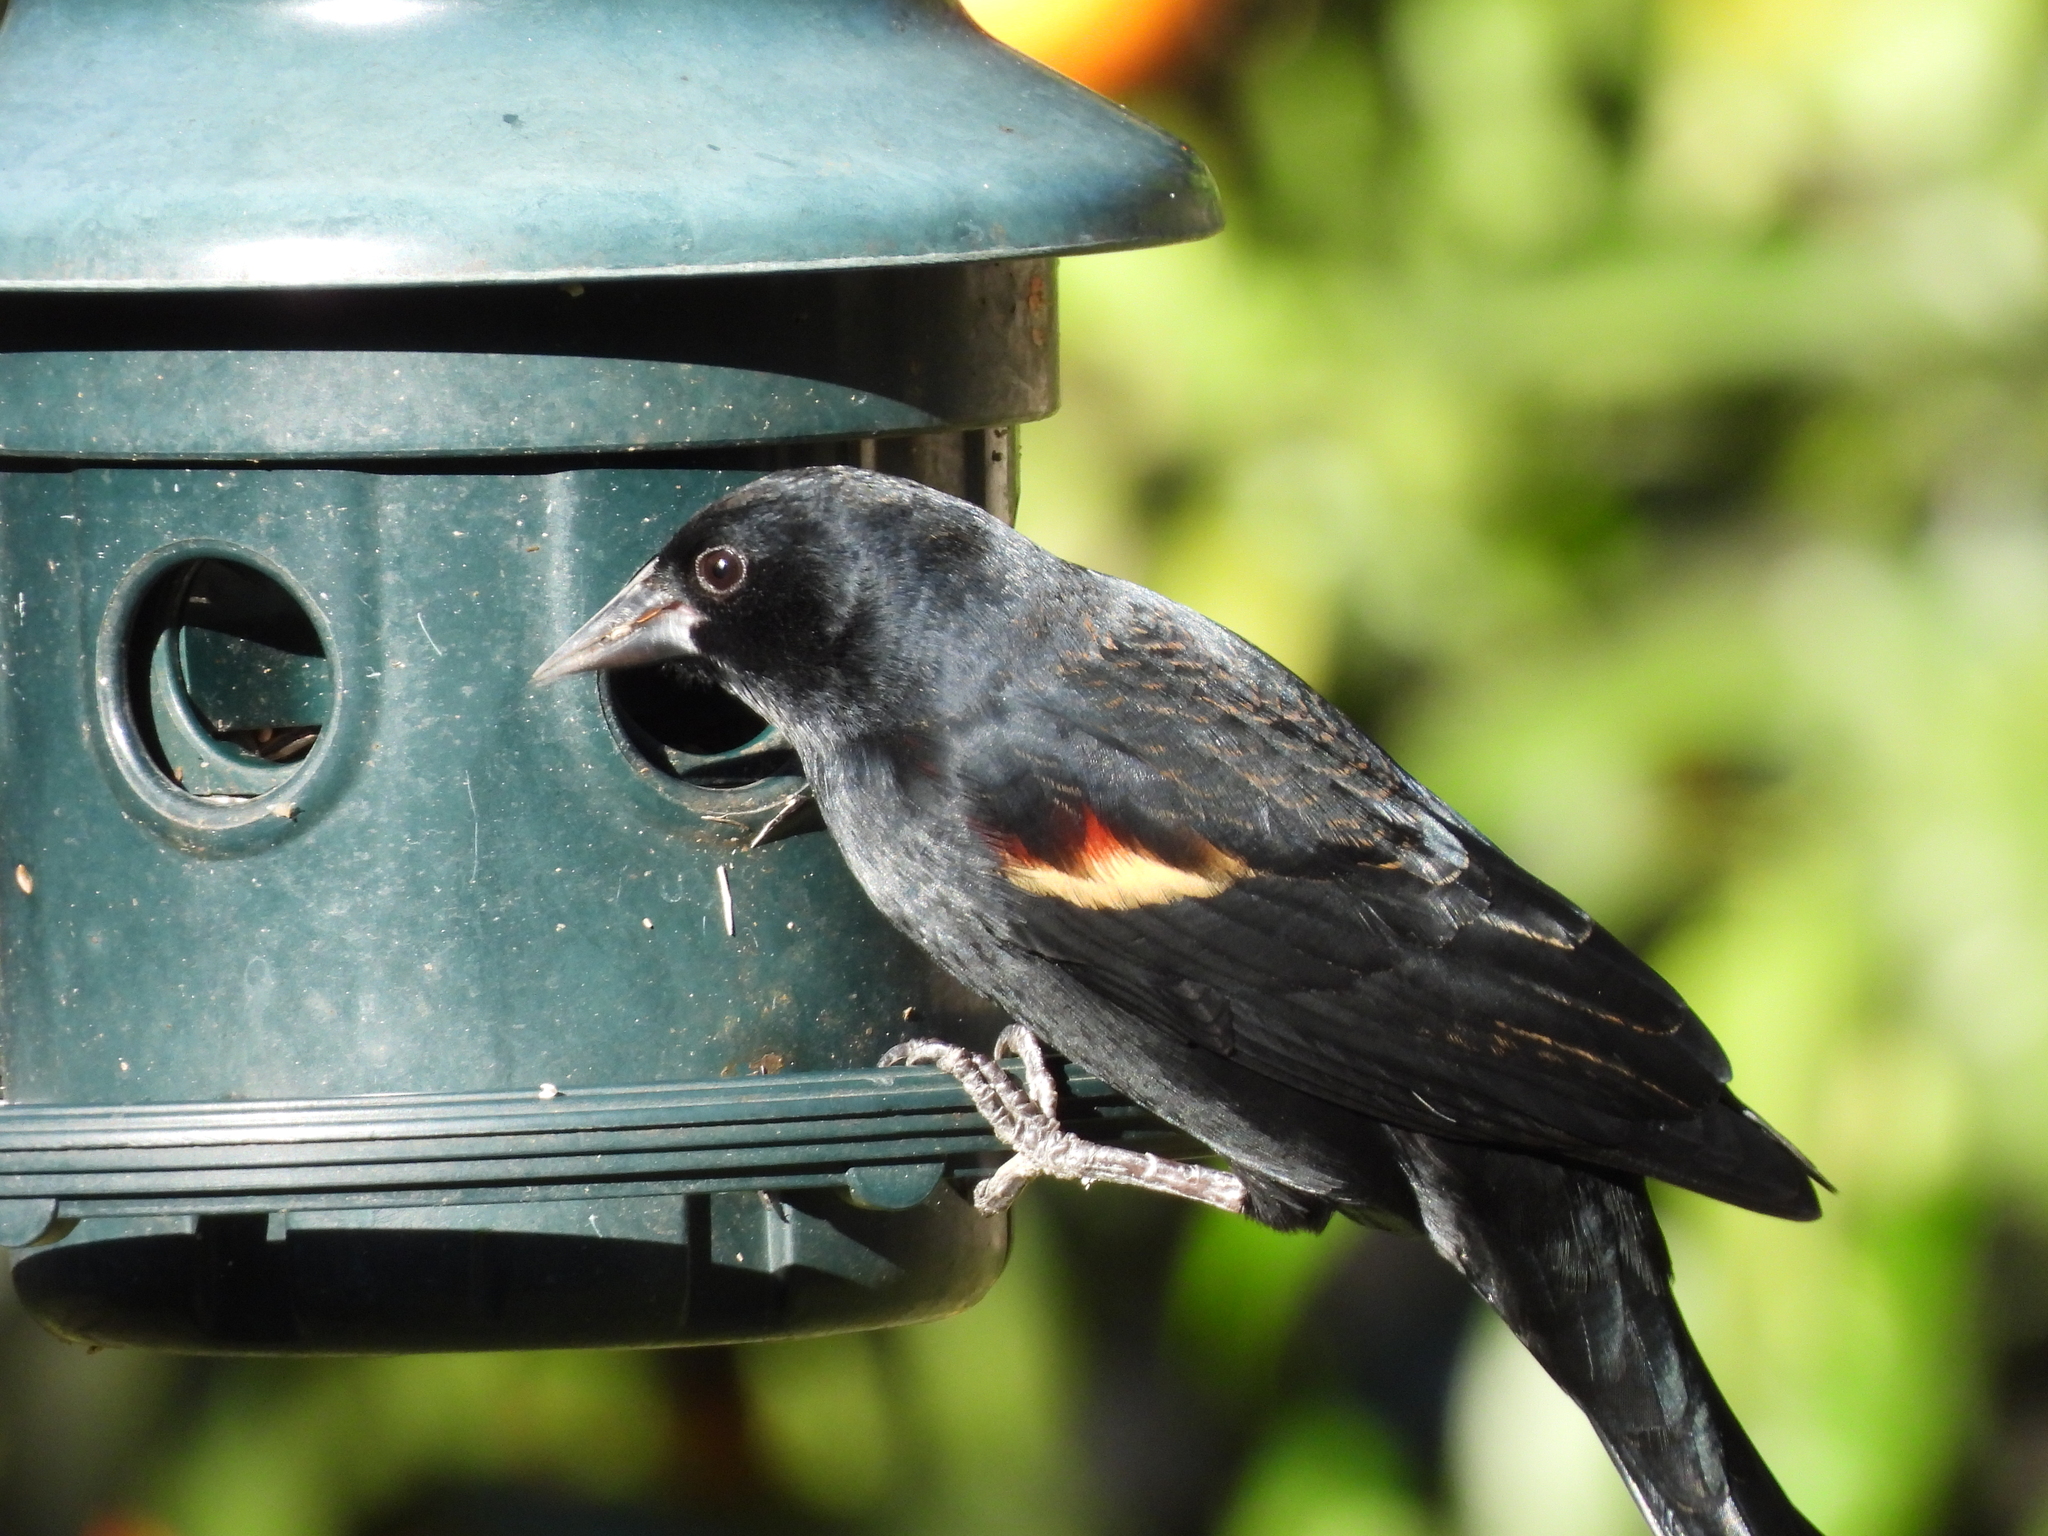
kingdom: Animalia
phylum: Chordata
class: Aves
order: Passeriformes
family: Icteridae
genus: Agelaius
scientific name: Agelaius phoeniceus
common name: Red-winged blackbird
